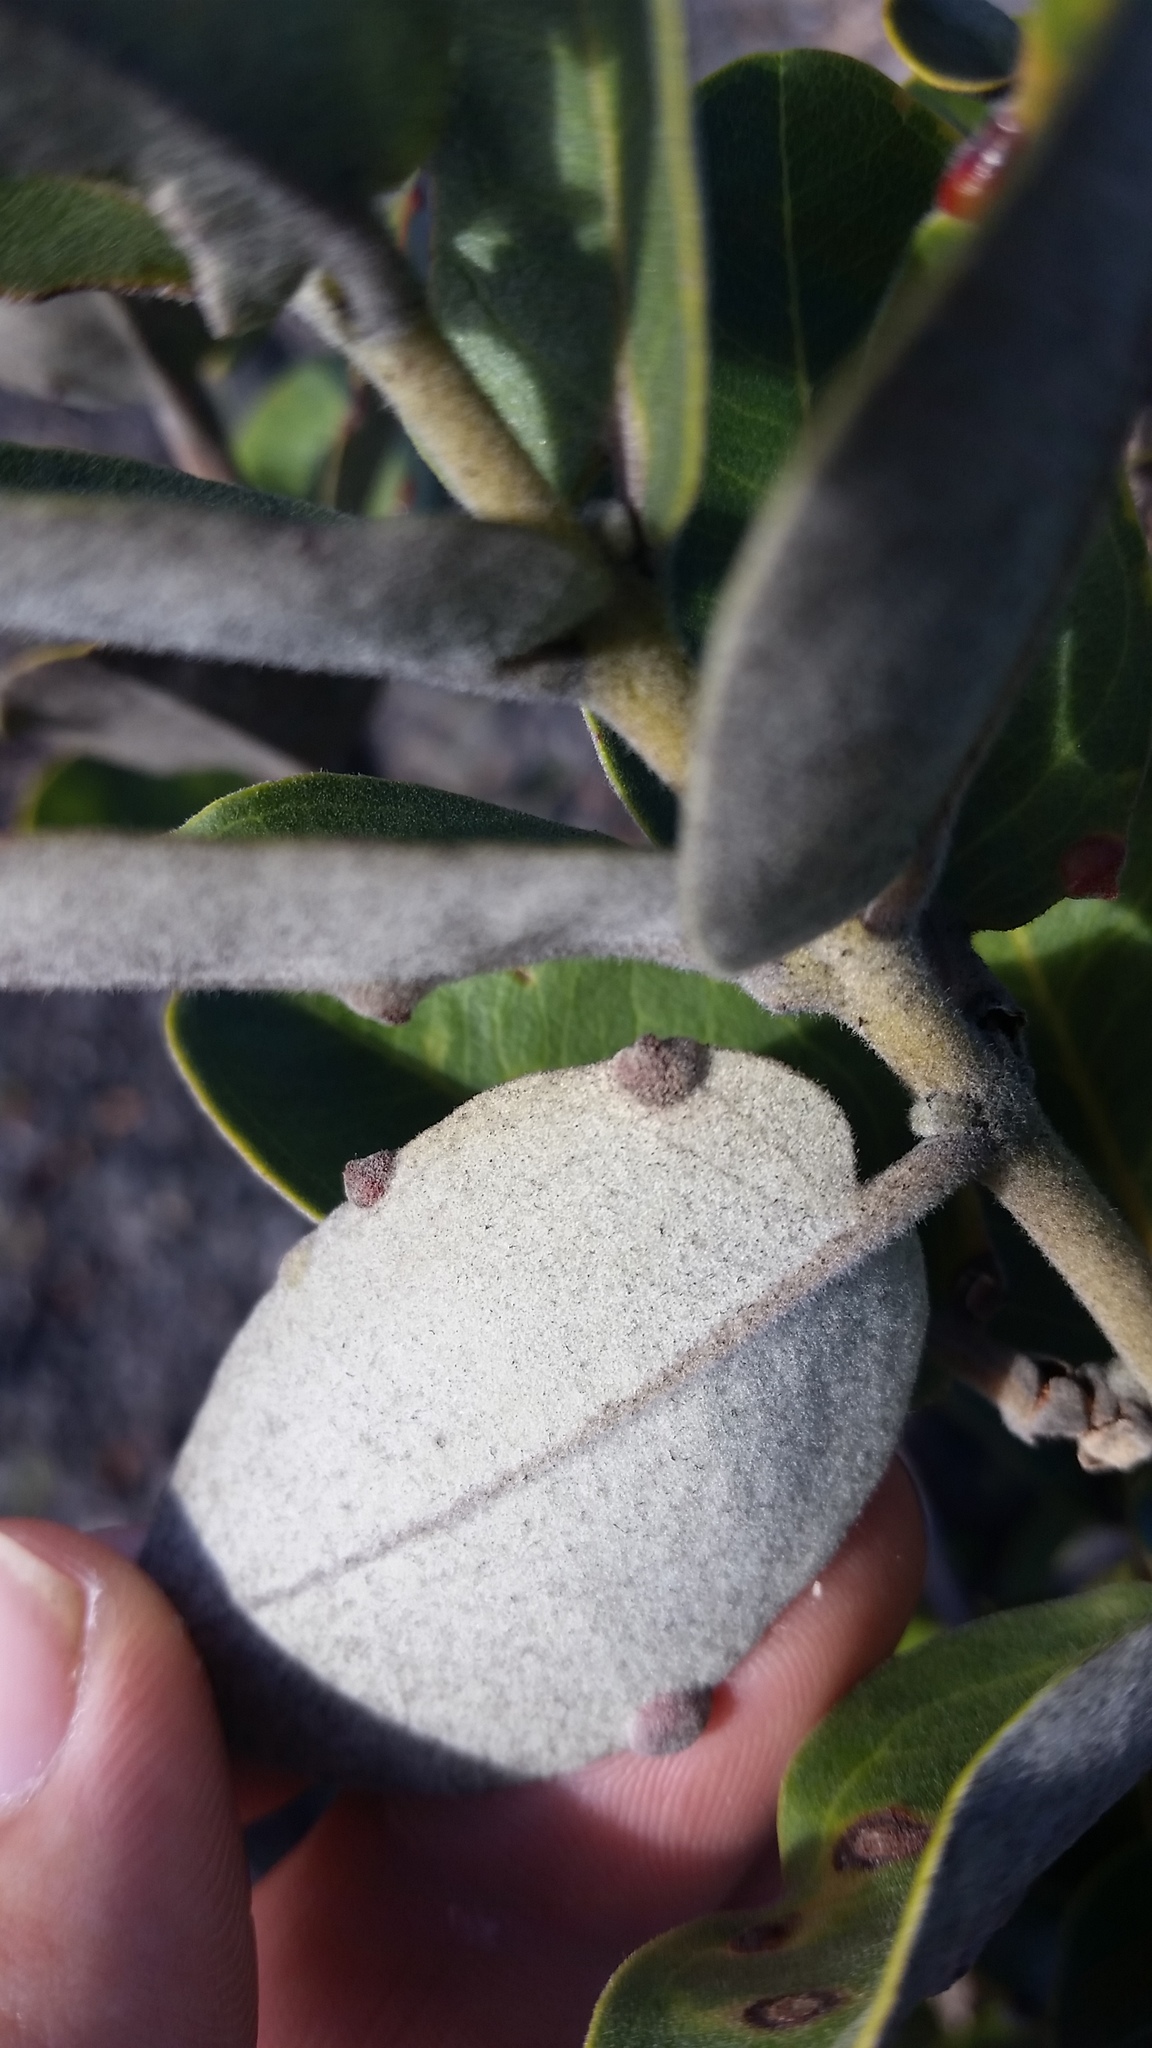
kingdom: Plantae
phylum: Tracheophyta
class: Magnoliopsida
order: Myrtales
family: Myrtaceae
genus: Metrosideros
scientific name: Metrosideros polymorpha
